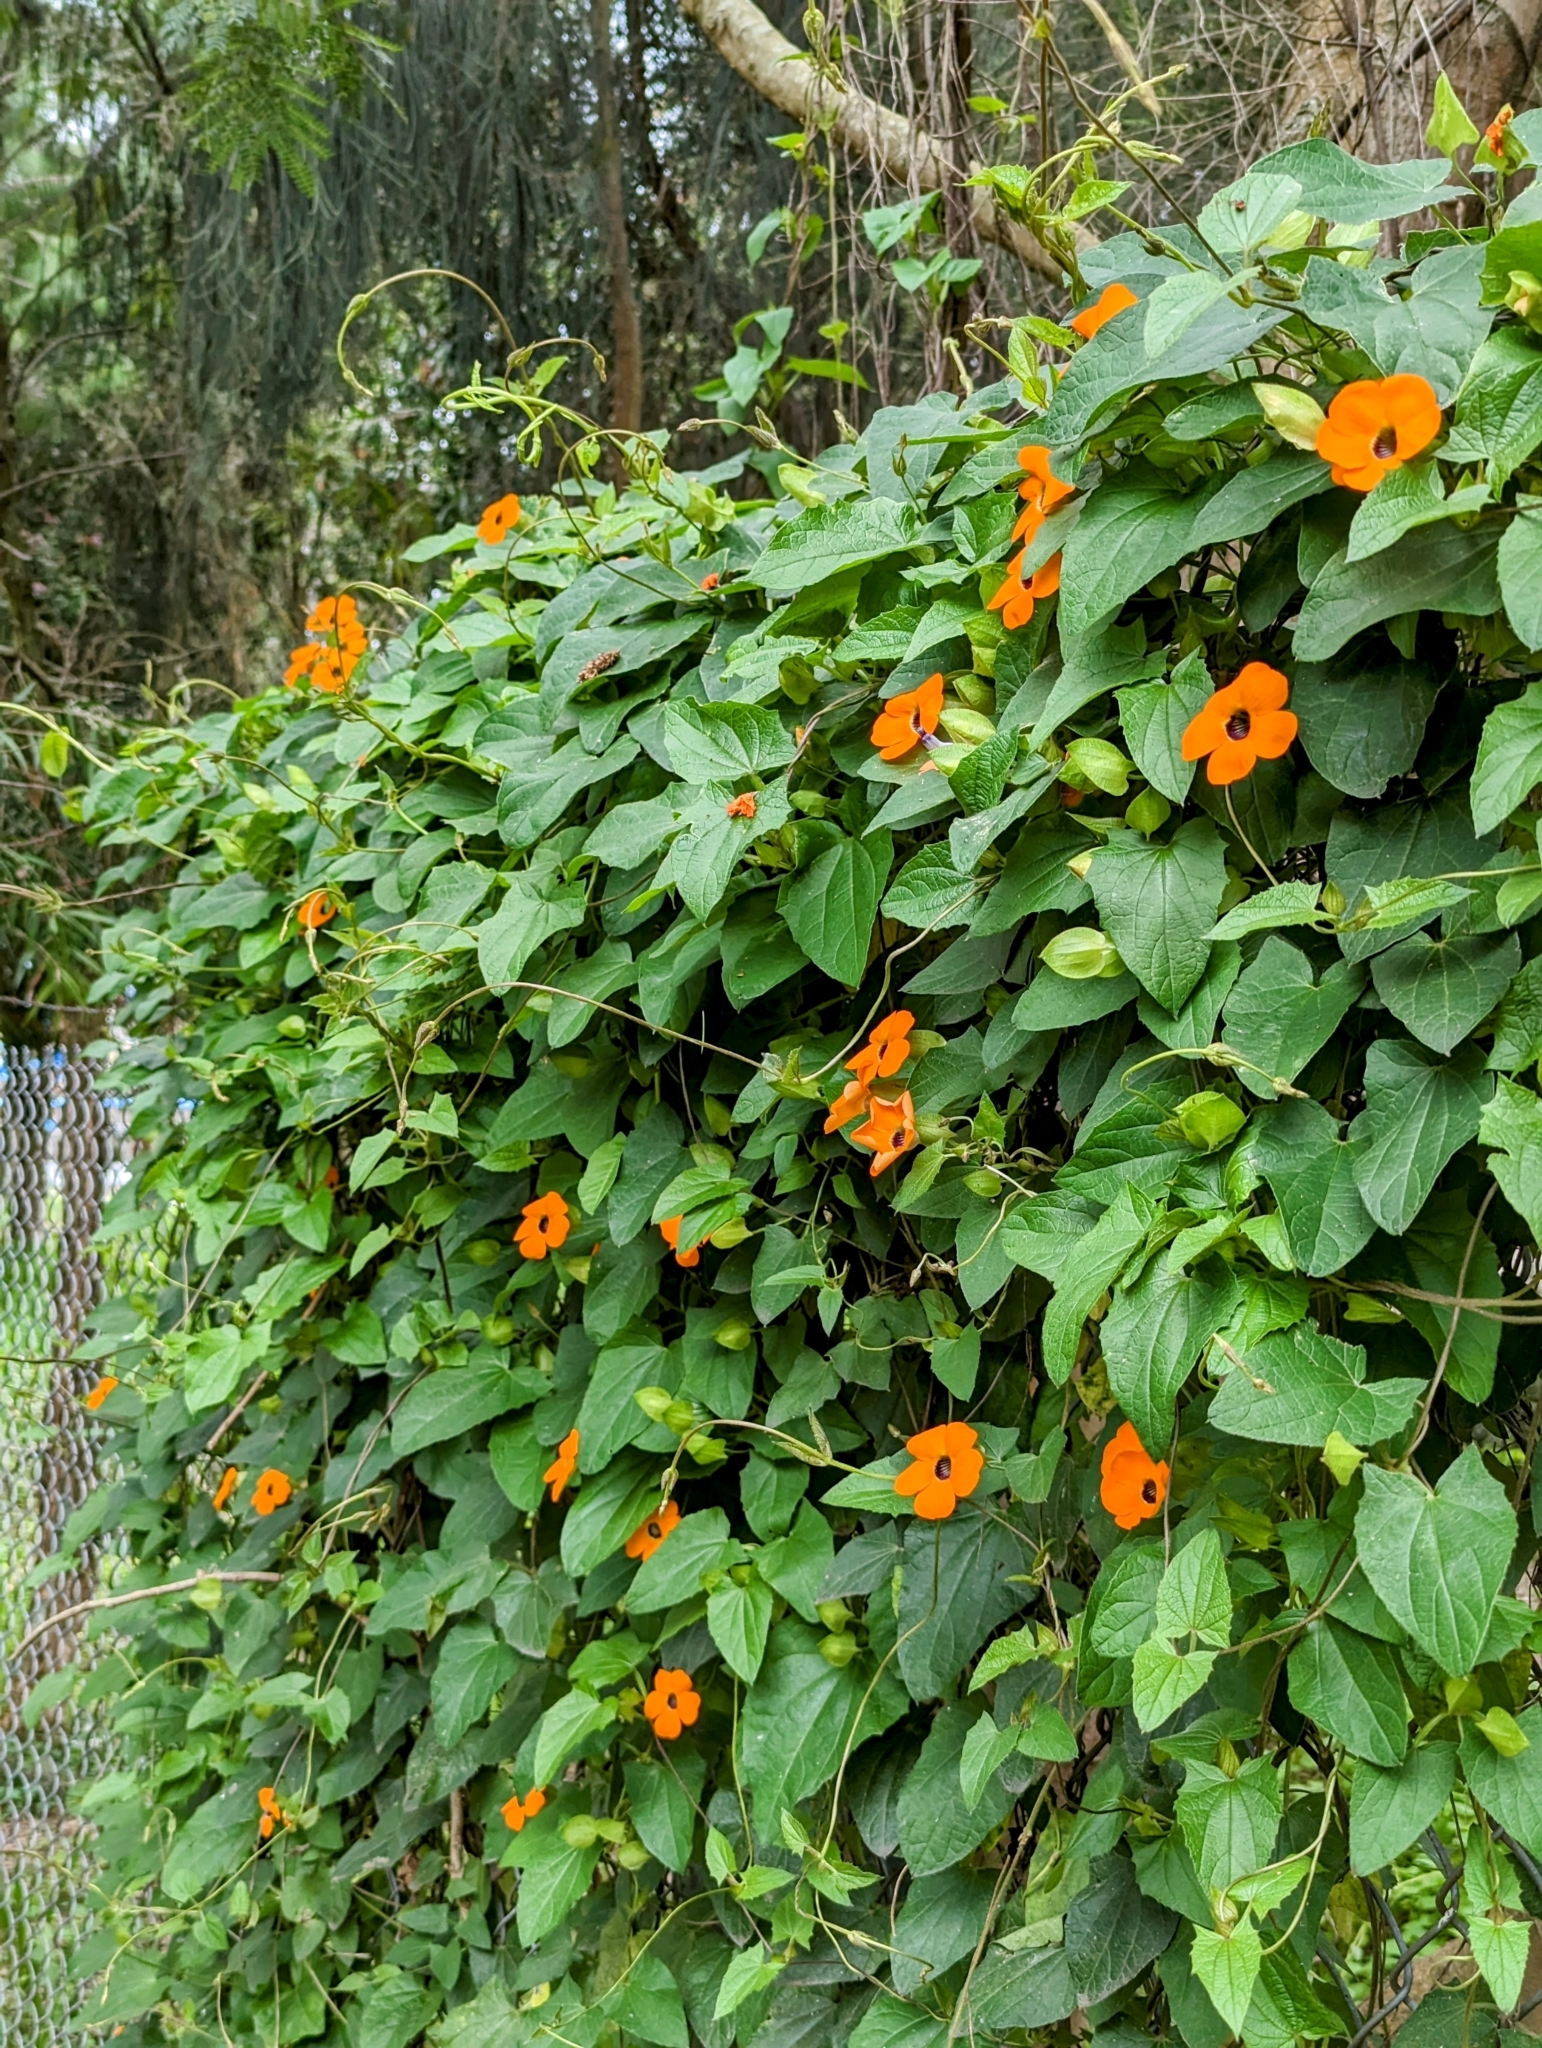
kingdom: Plantae
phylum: Tracheophyta
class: Magnoliopsida
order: Lamiales
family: Acanthaceae
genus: Thunbergia
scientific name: Thunbergia alata
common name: Blackeyed susan vine
